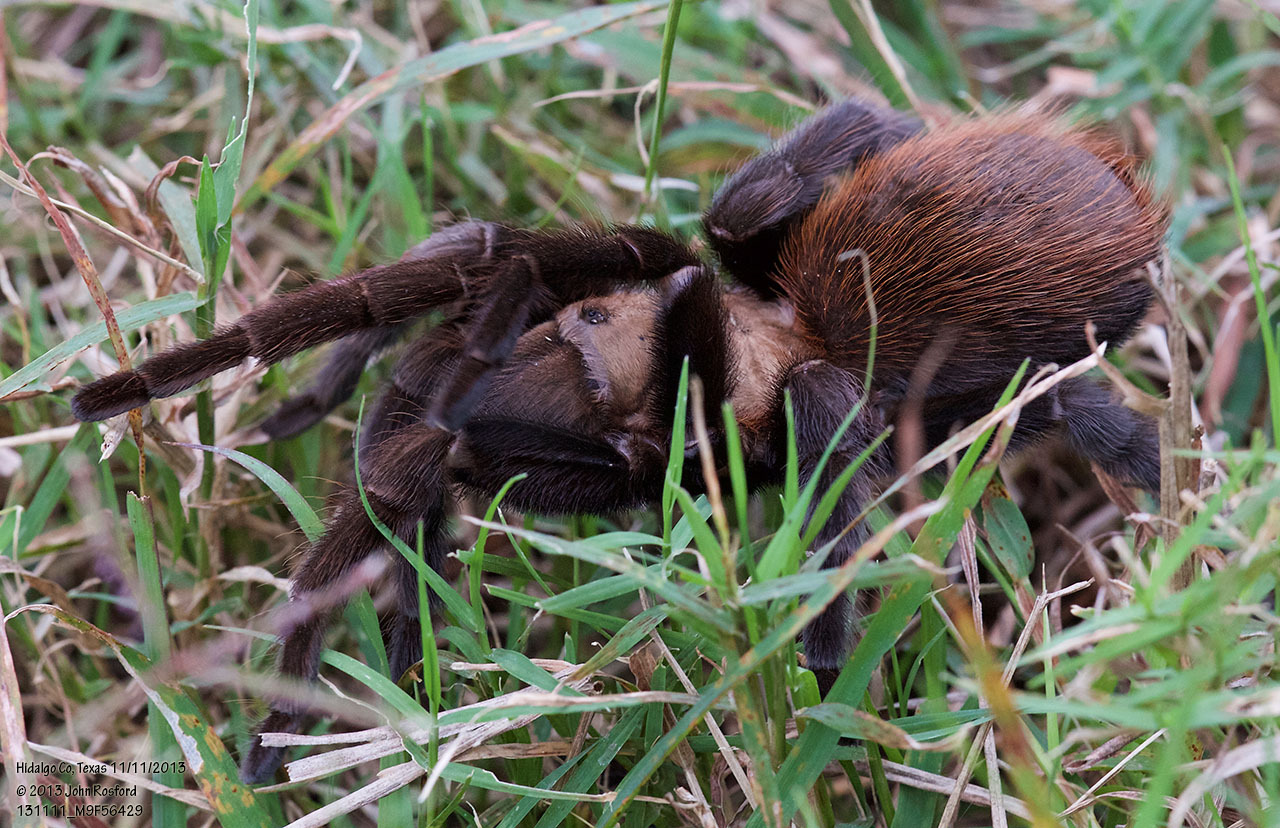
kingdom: Animalia
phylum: Arthropoda
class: Arachnida
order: Araneae
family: Theraphosidae
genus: Aphonopelma
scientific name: Aphonopelma anax
